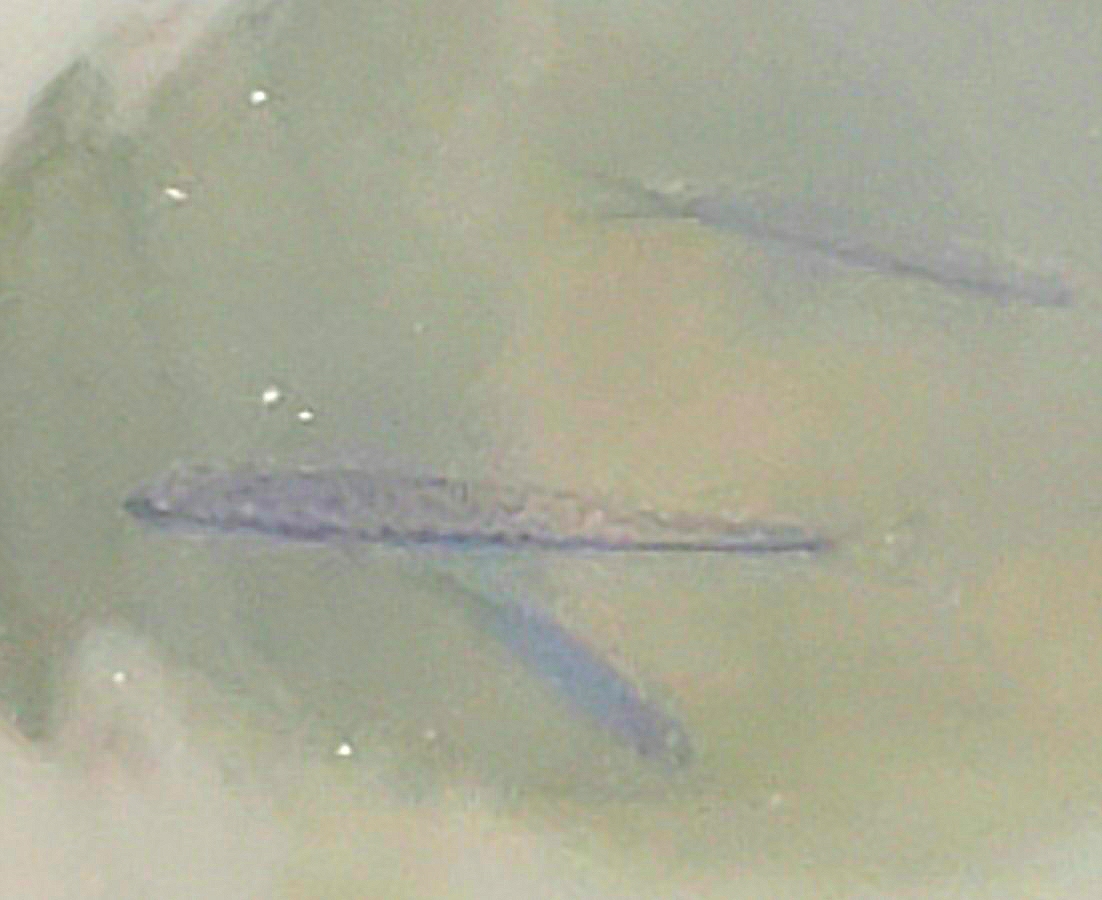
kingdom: Animalia
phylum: Chordata
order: Perciformes
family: Centrarchidae
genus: Micropterus
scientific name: Micropterus
